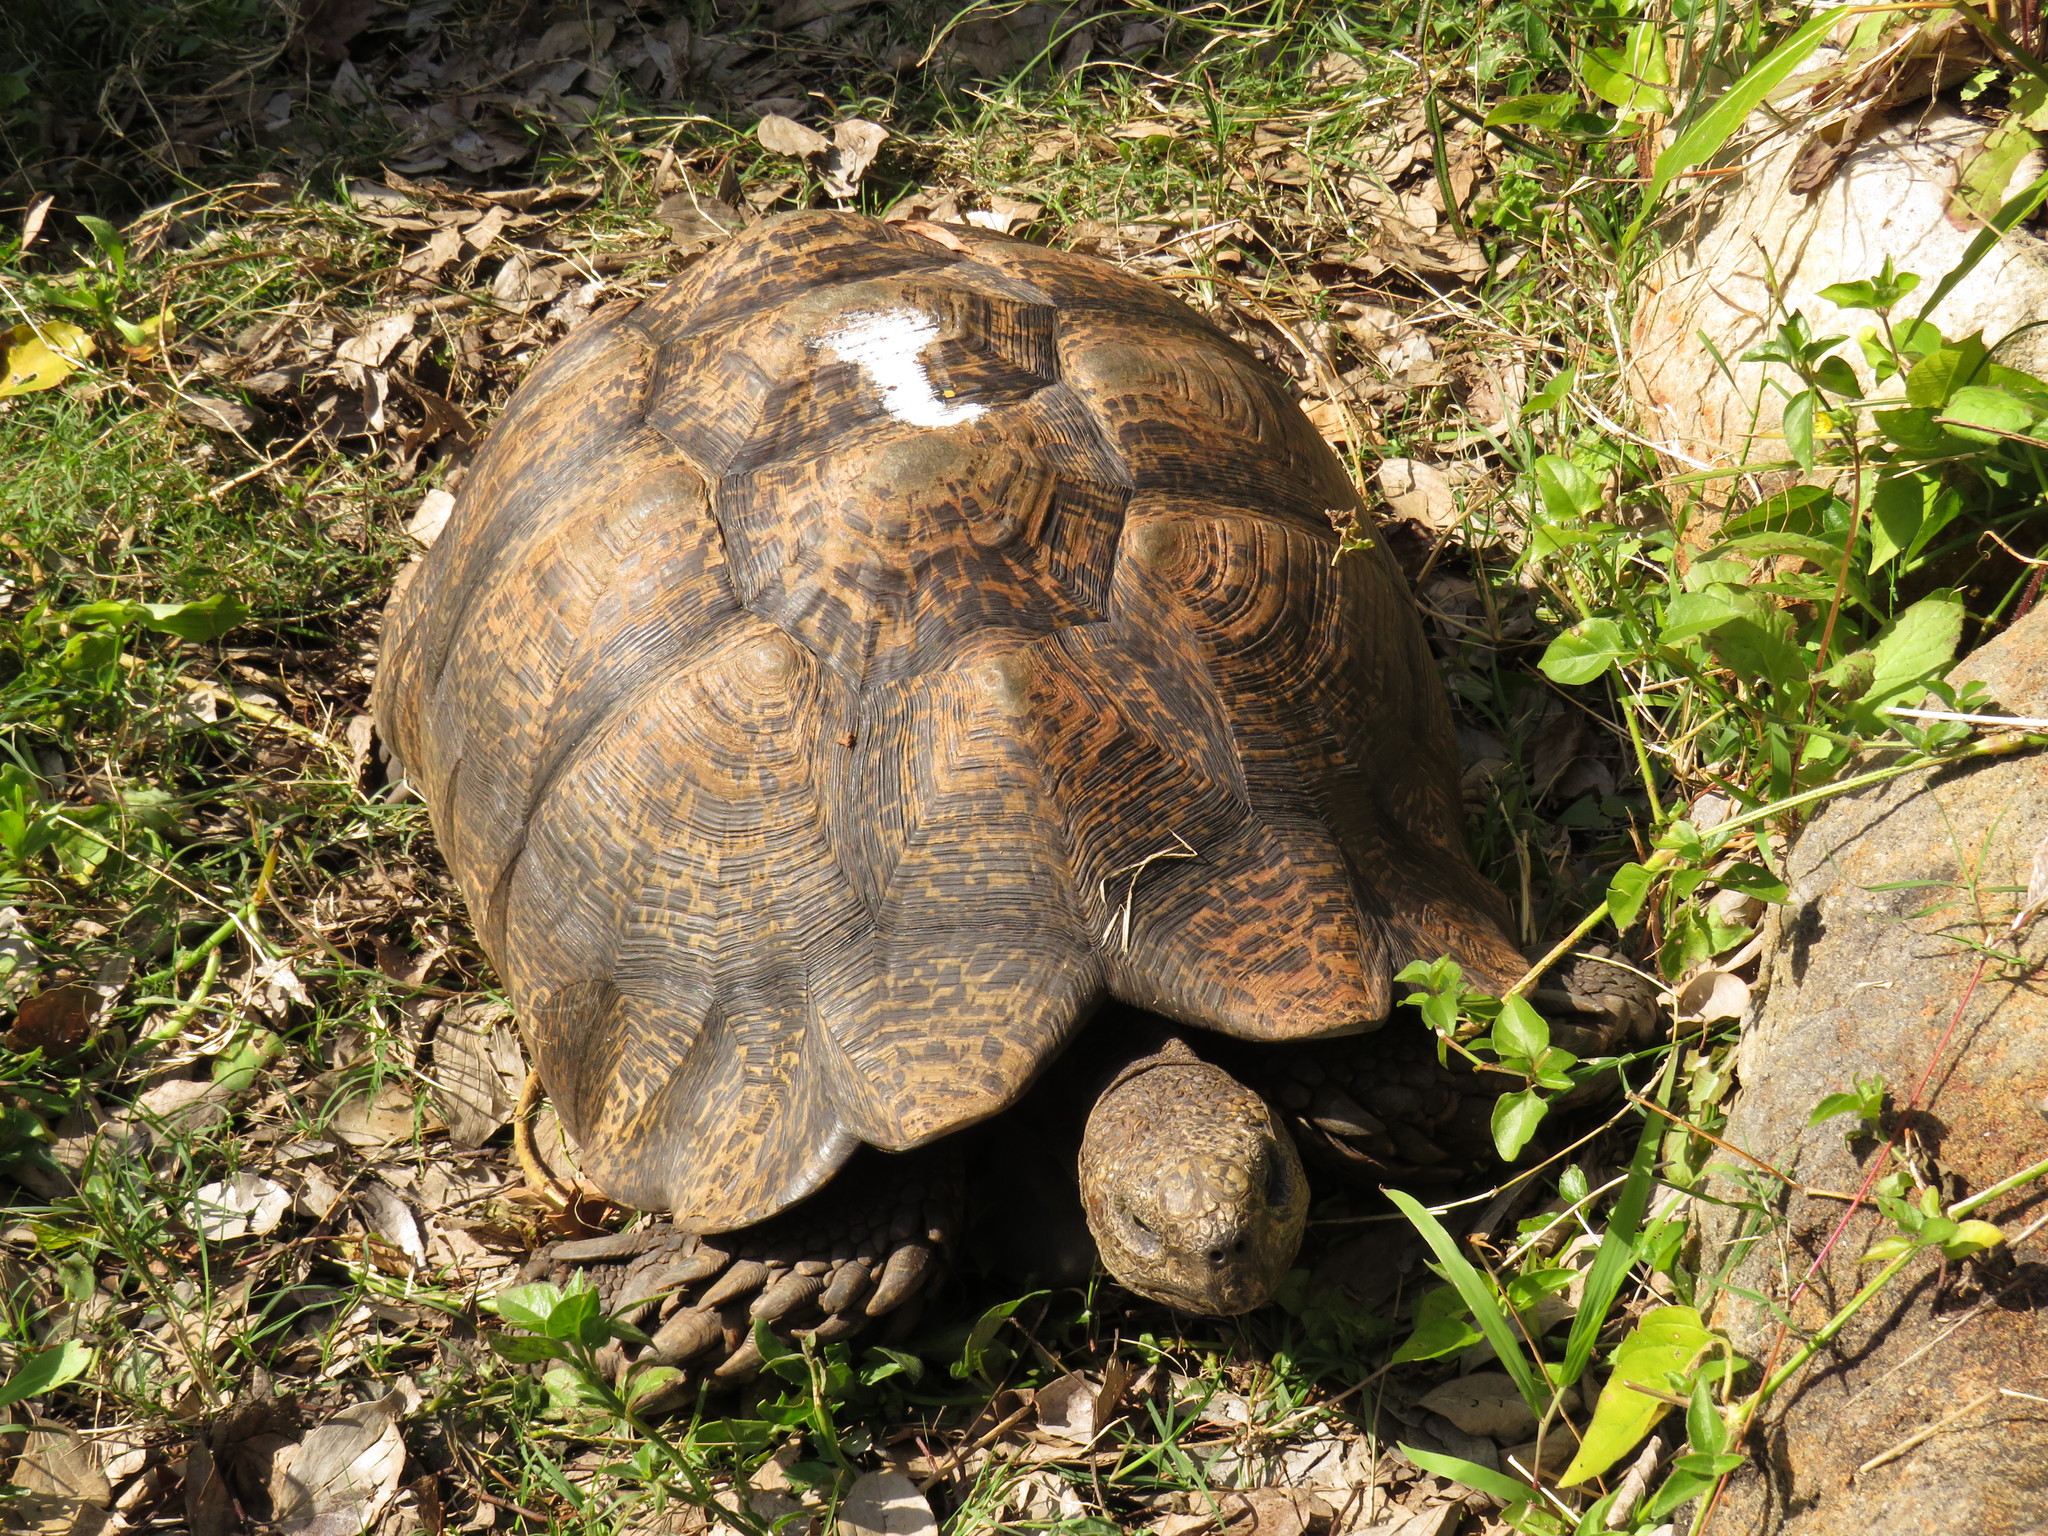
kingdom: Animalia
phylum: Chordata
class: Testudines
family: Testudinidae
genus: Stigmochelys
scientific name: Stigmochelys pardalis
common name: Leopard tortoise
